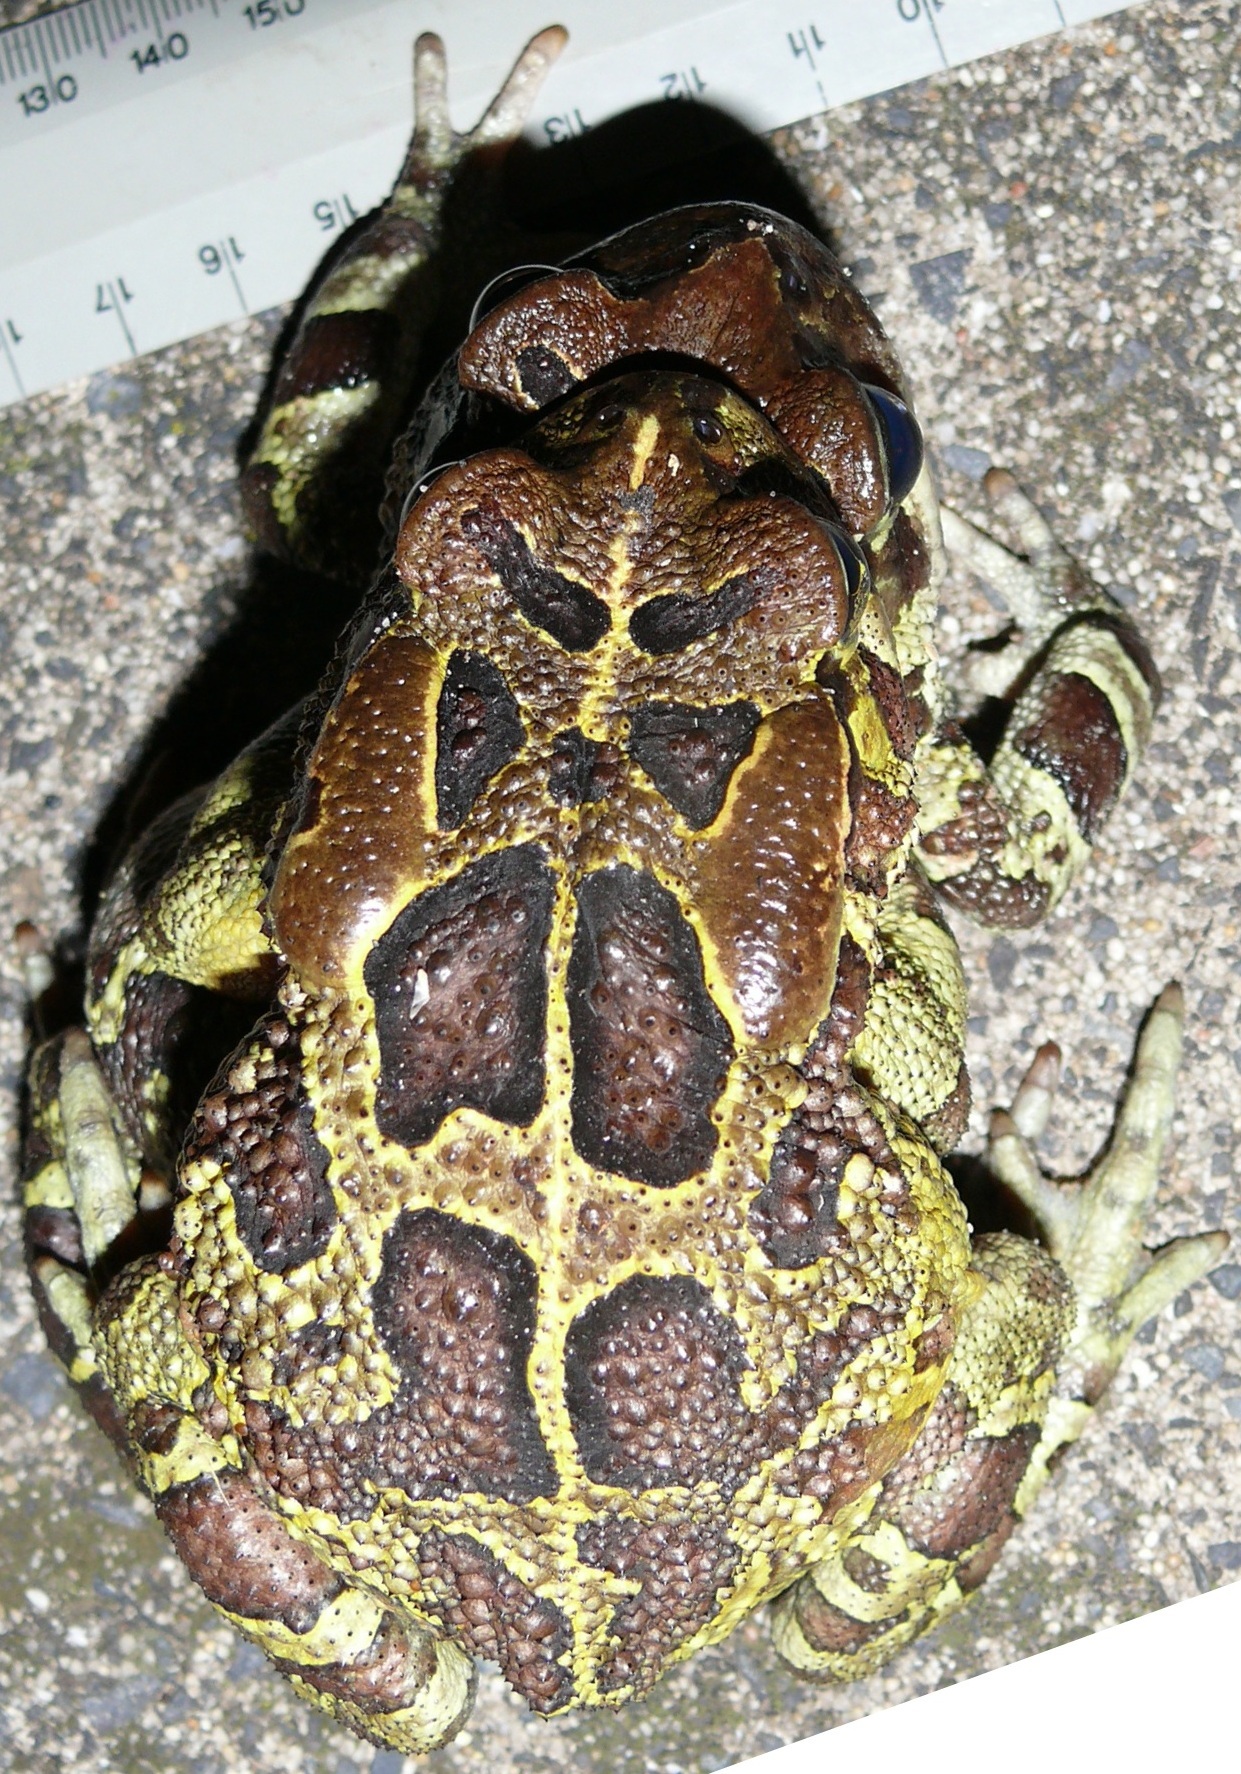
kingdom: Animalia
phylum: Chordata
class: Amphibia
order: Anura
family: Bufonidae
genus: Sclerophrys
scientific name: Sclerophrys pantherina
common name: Panther toad
